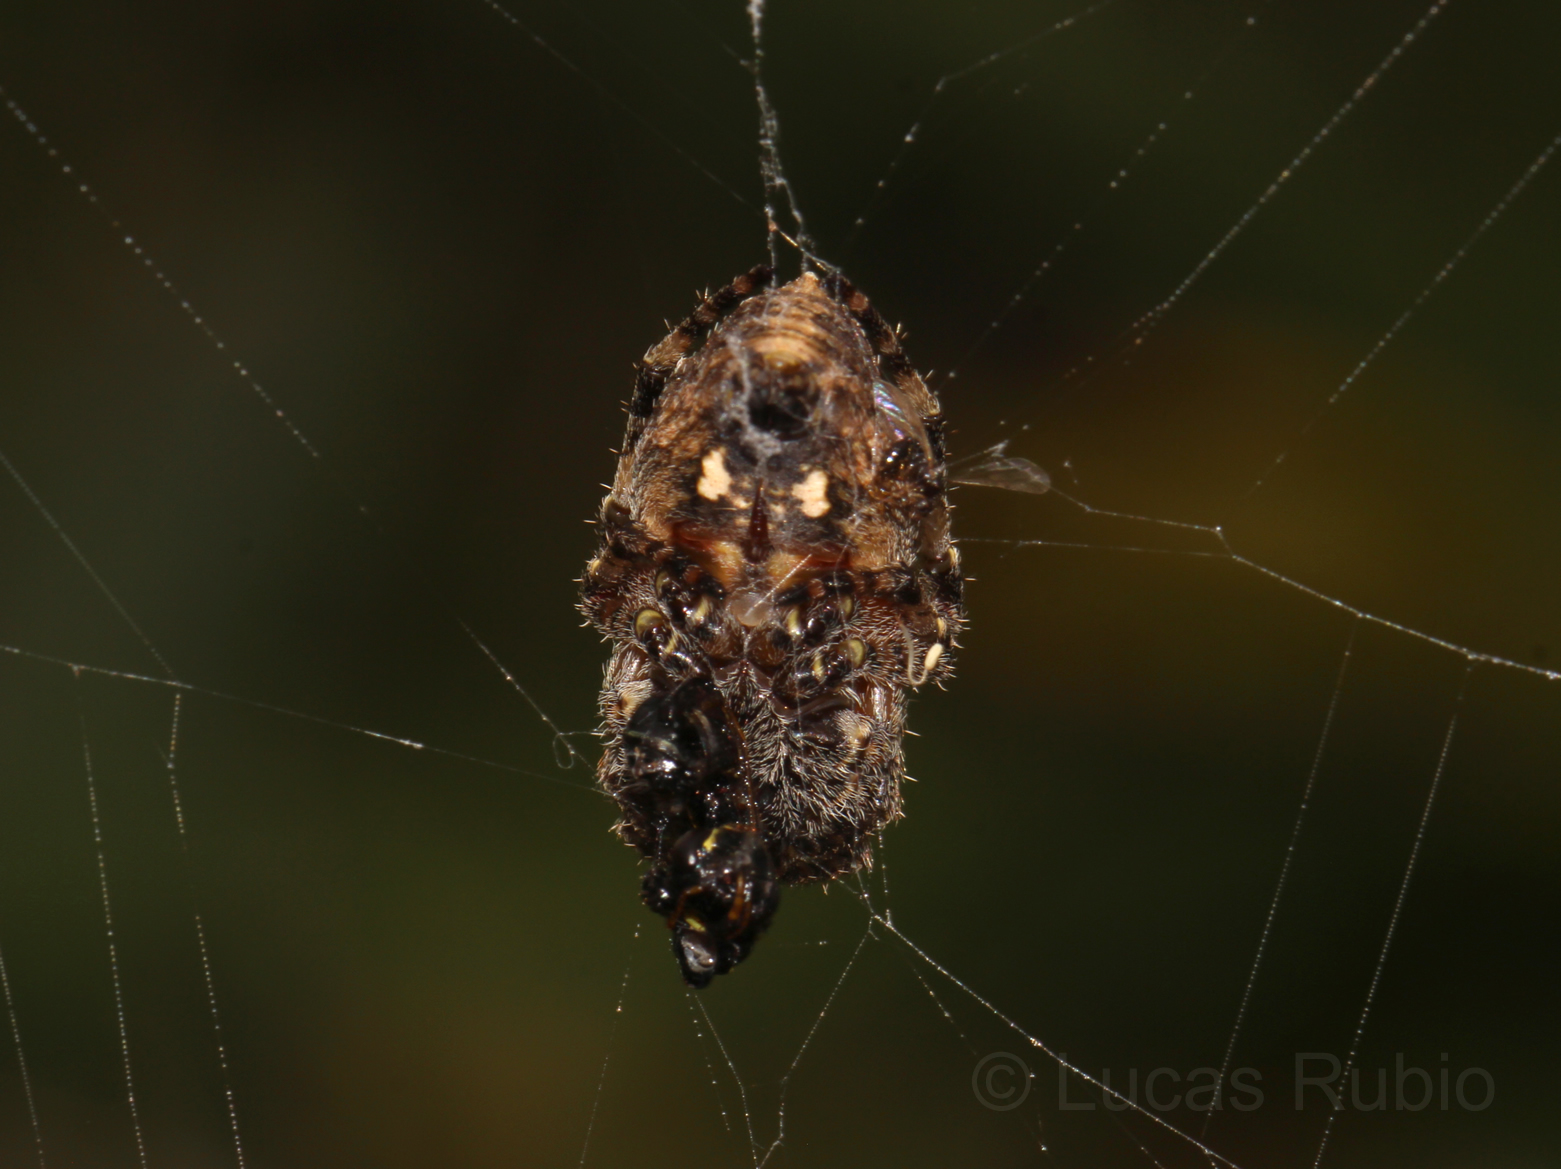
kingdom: Animalia
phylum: Arthropoda
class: Arachnida
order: Araneae
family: Araneidae
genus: Parawixia
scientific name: Parawixia undulata
